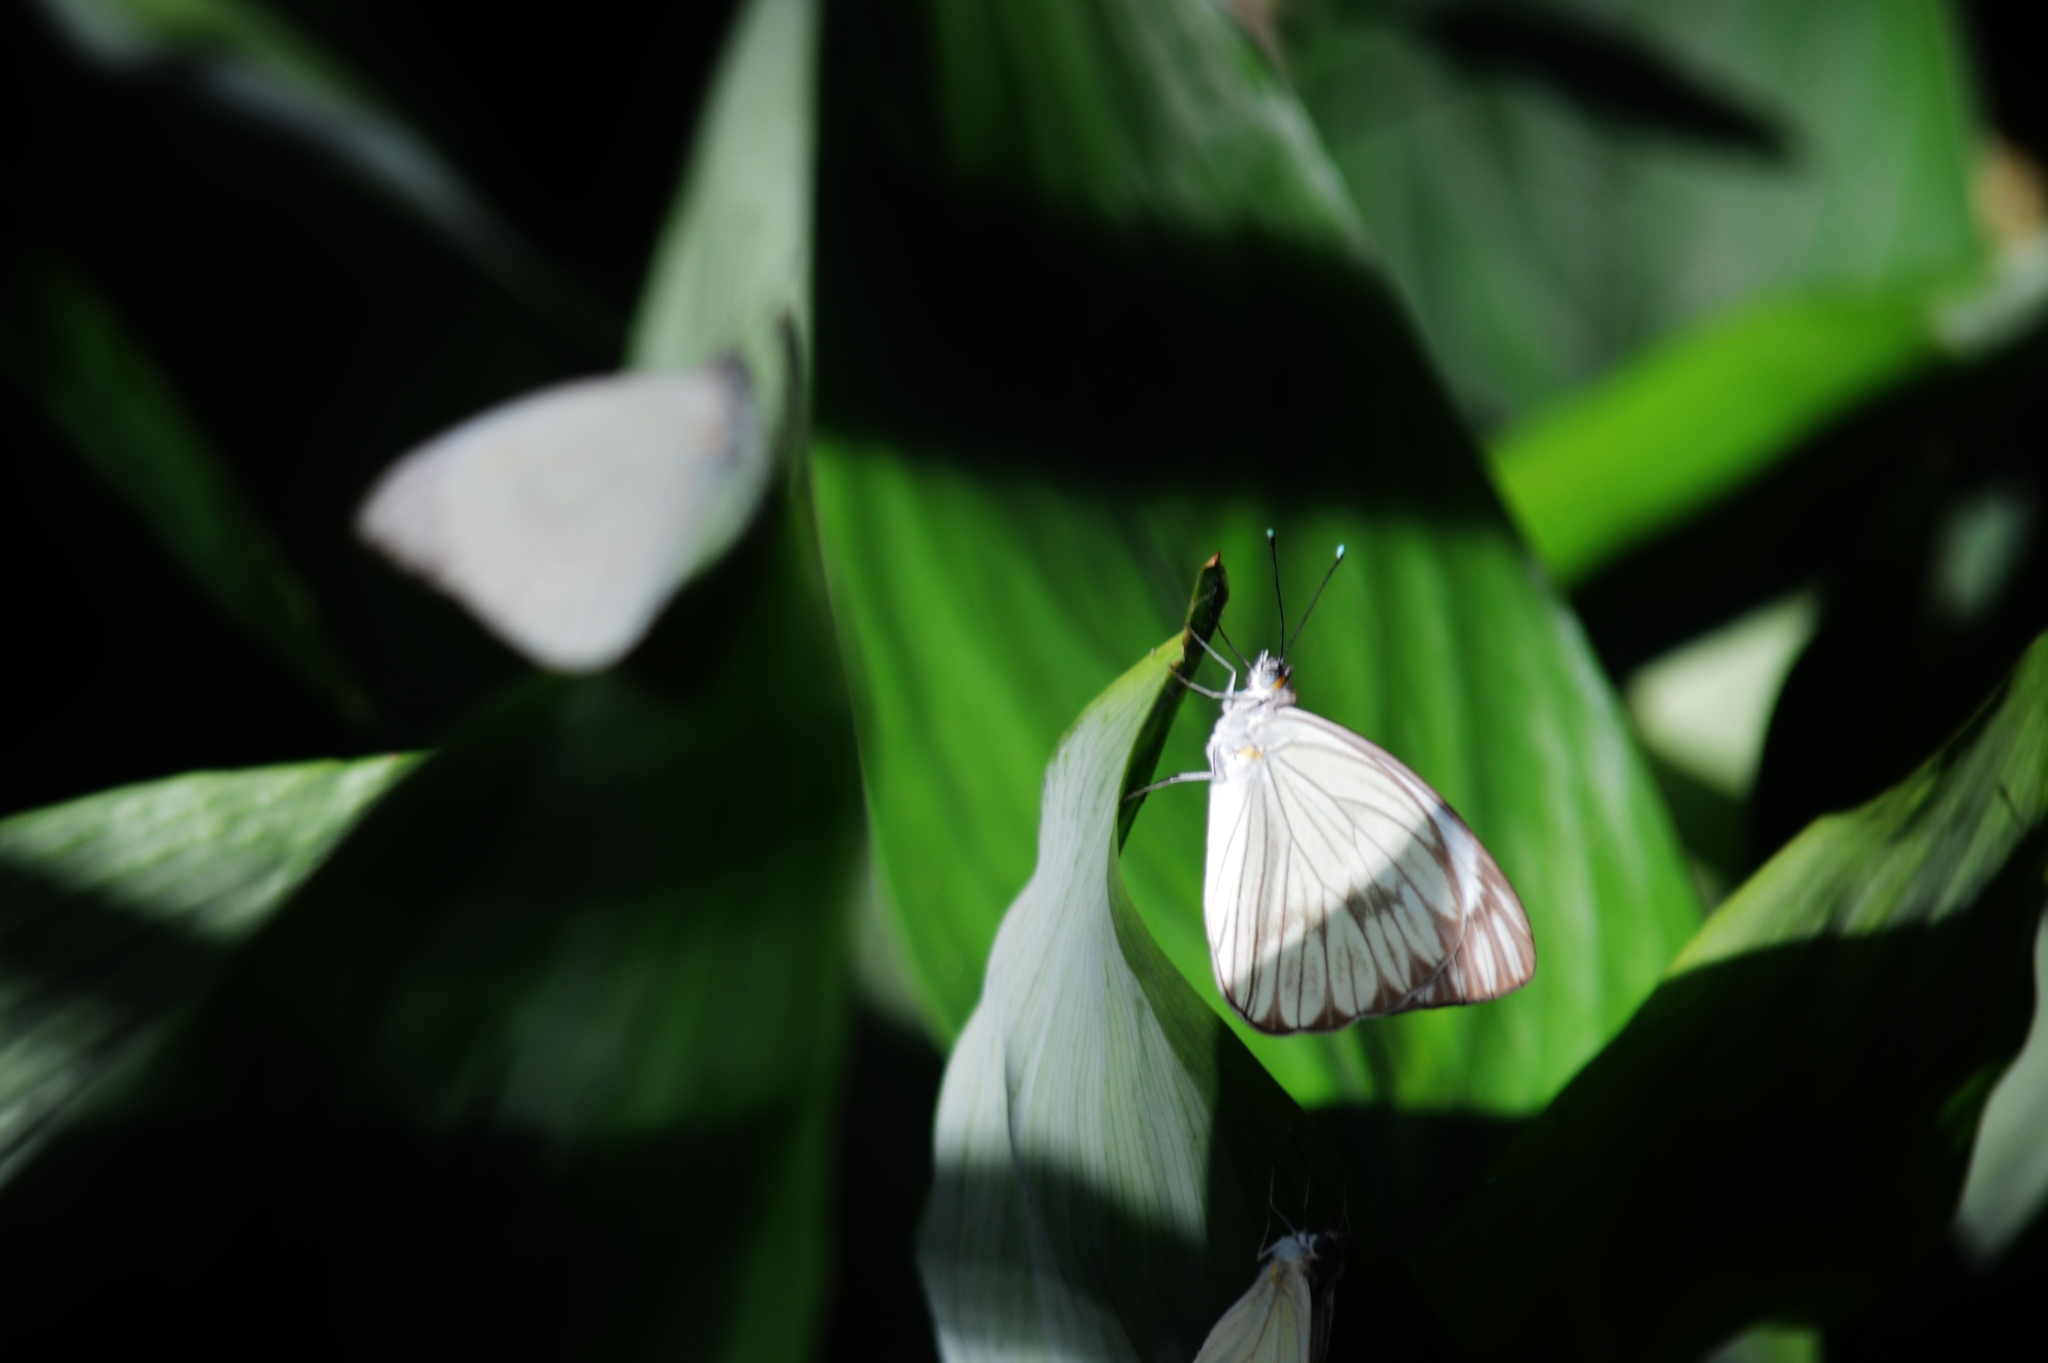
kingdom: Animalia
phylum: Arthropoda
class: Insecta
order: Lepidoptera
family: Pieridae
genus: Ascia
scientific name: Ascia monuste
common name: Great southern white
